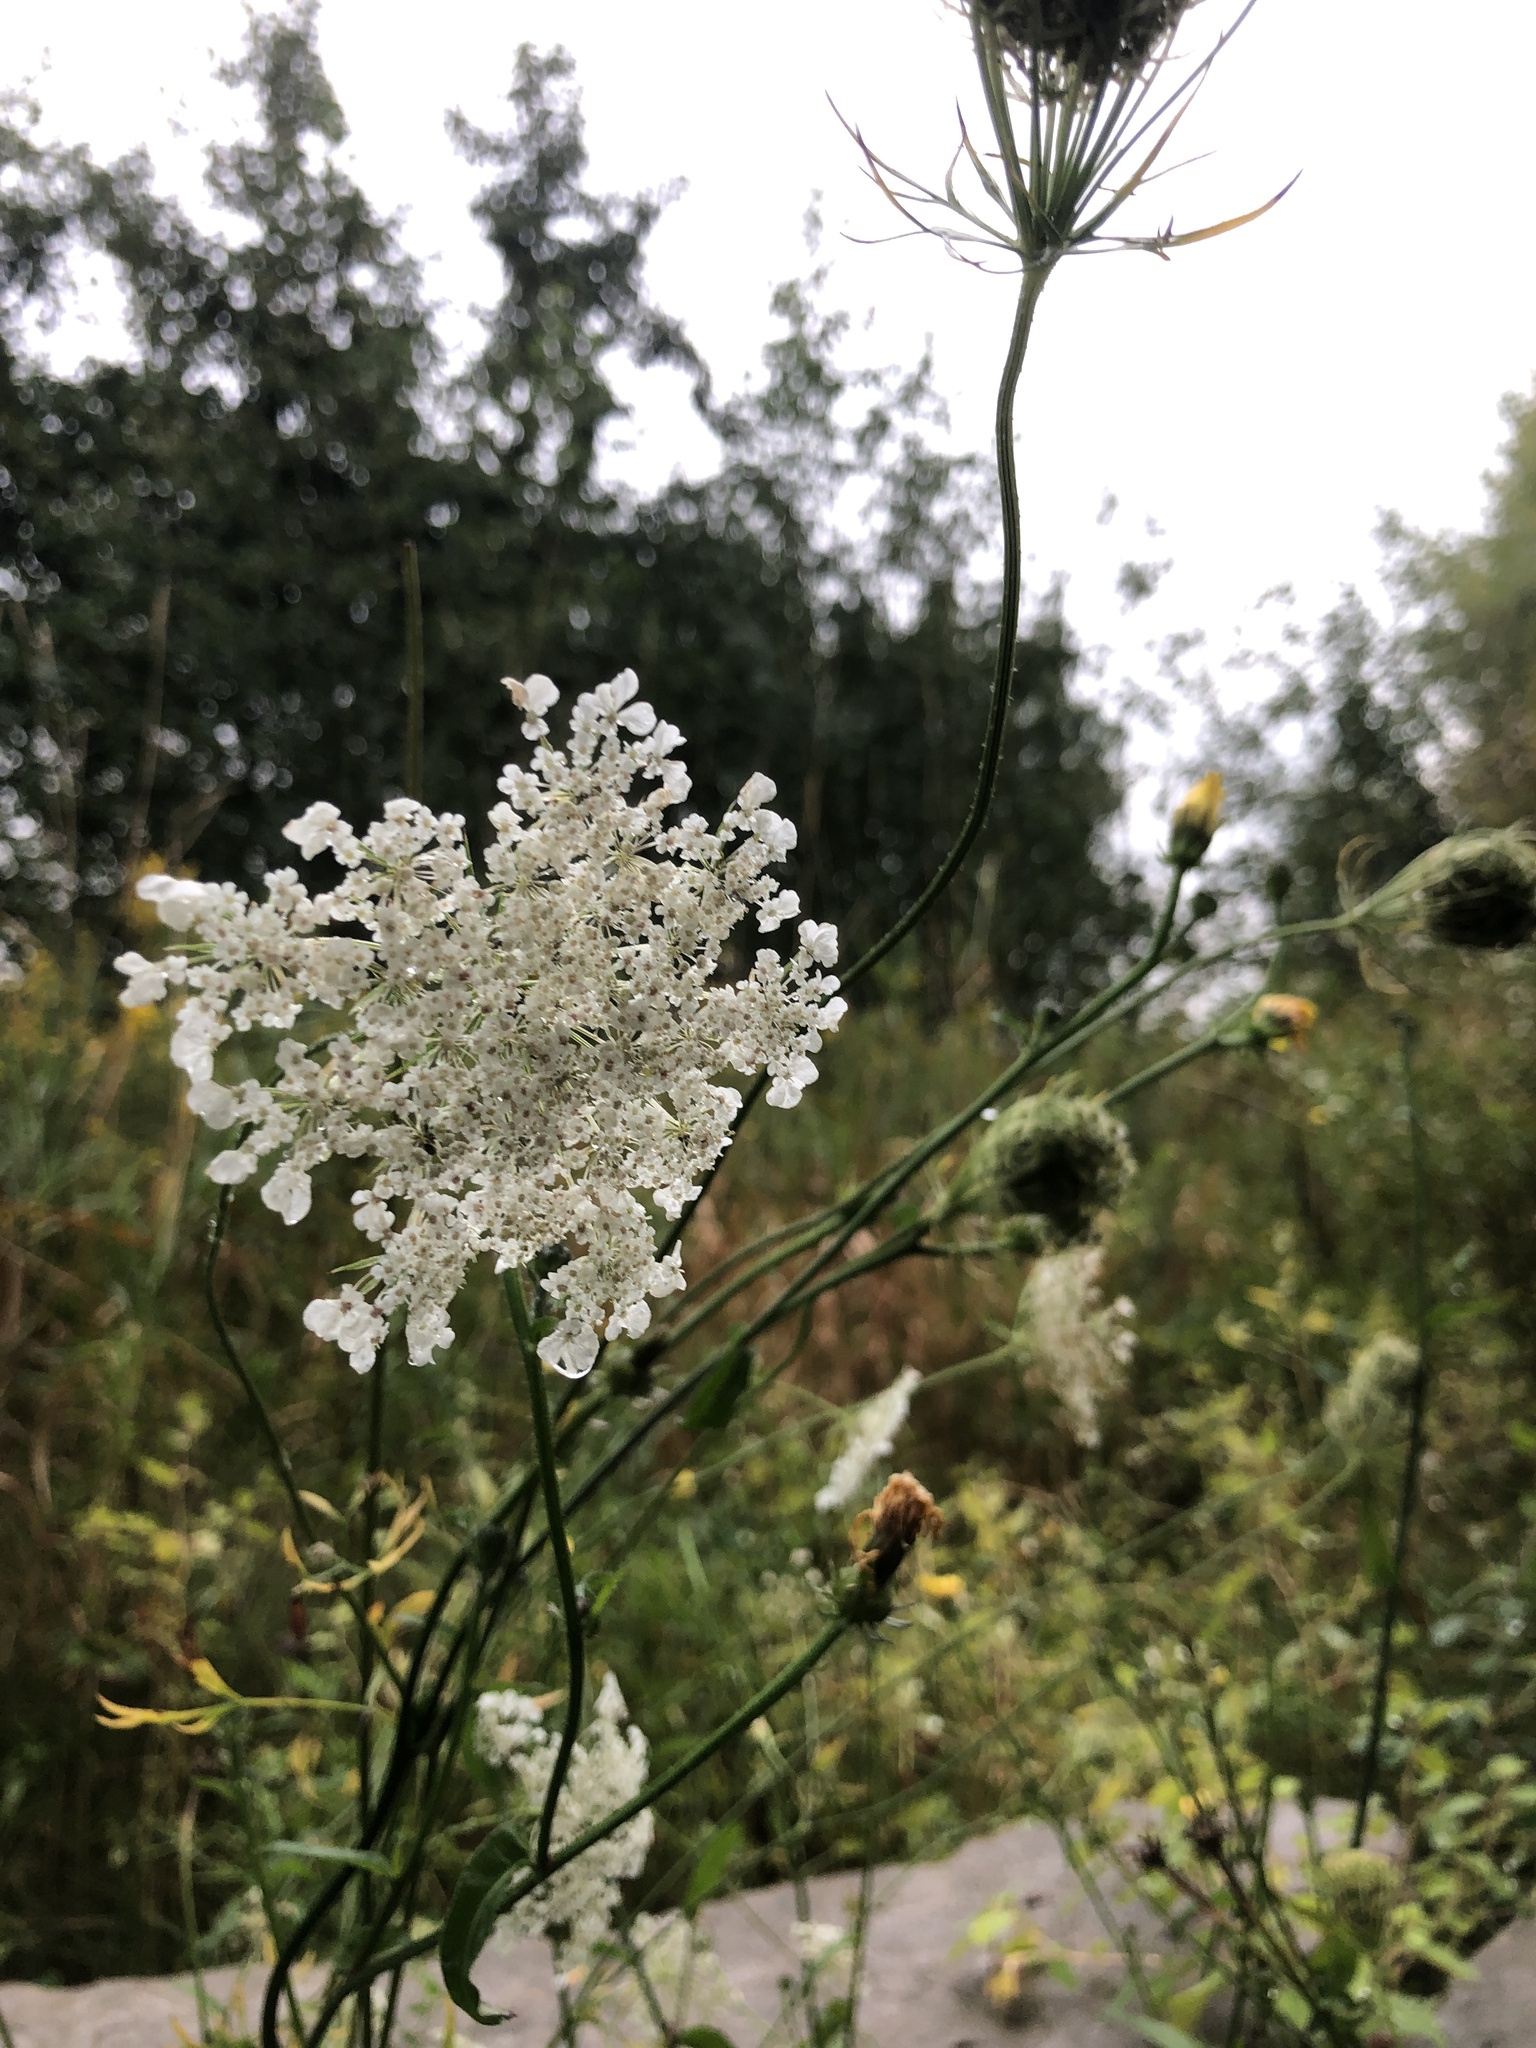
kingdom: Plantae
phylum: Tracheophyta
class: Magnoliopsida
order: Apiales
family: Apiaceae
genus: Daucus
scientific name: Daucus carota
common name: Wild carrot
